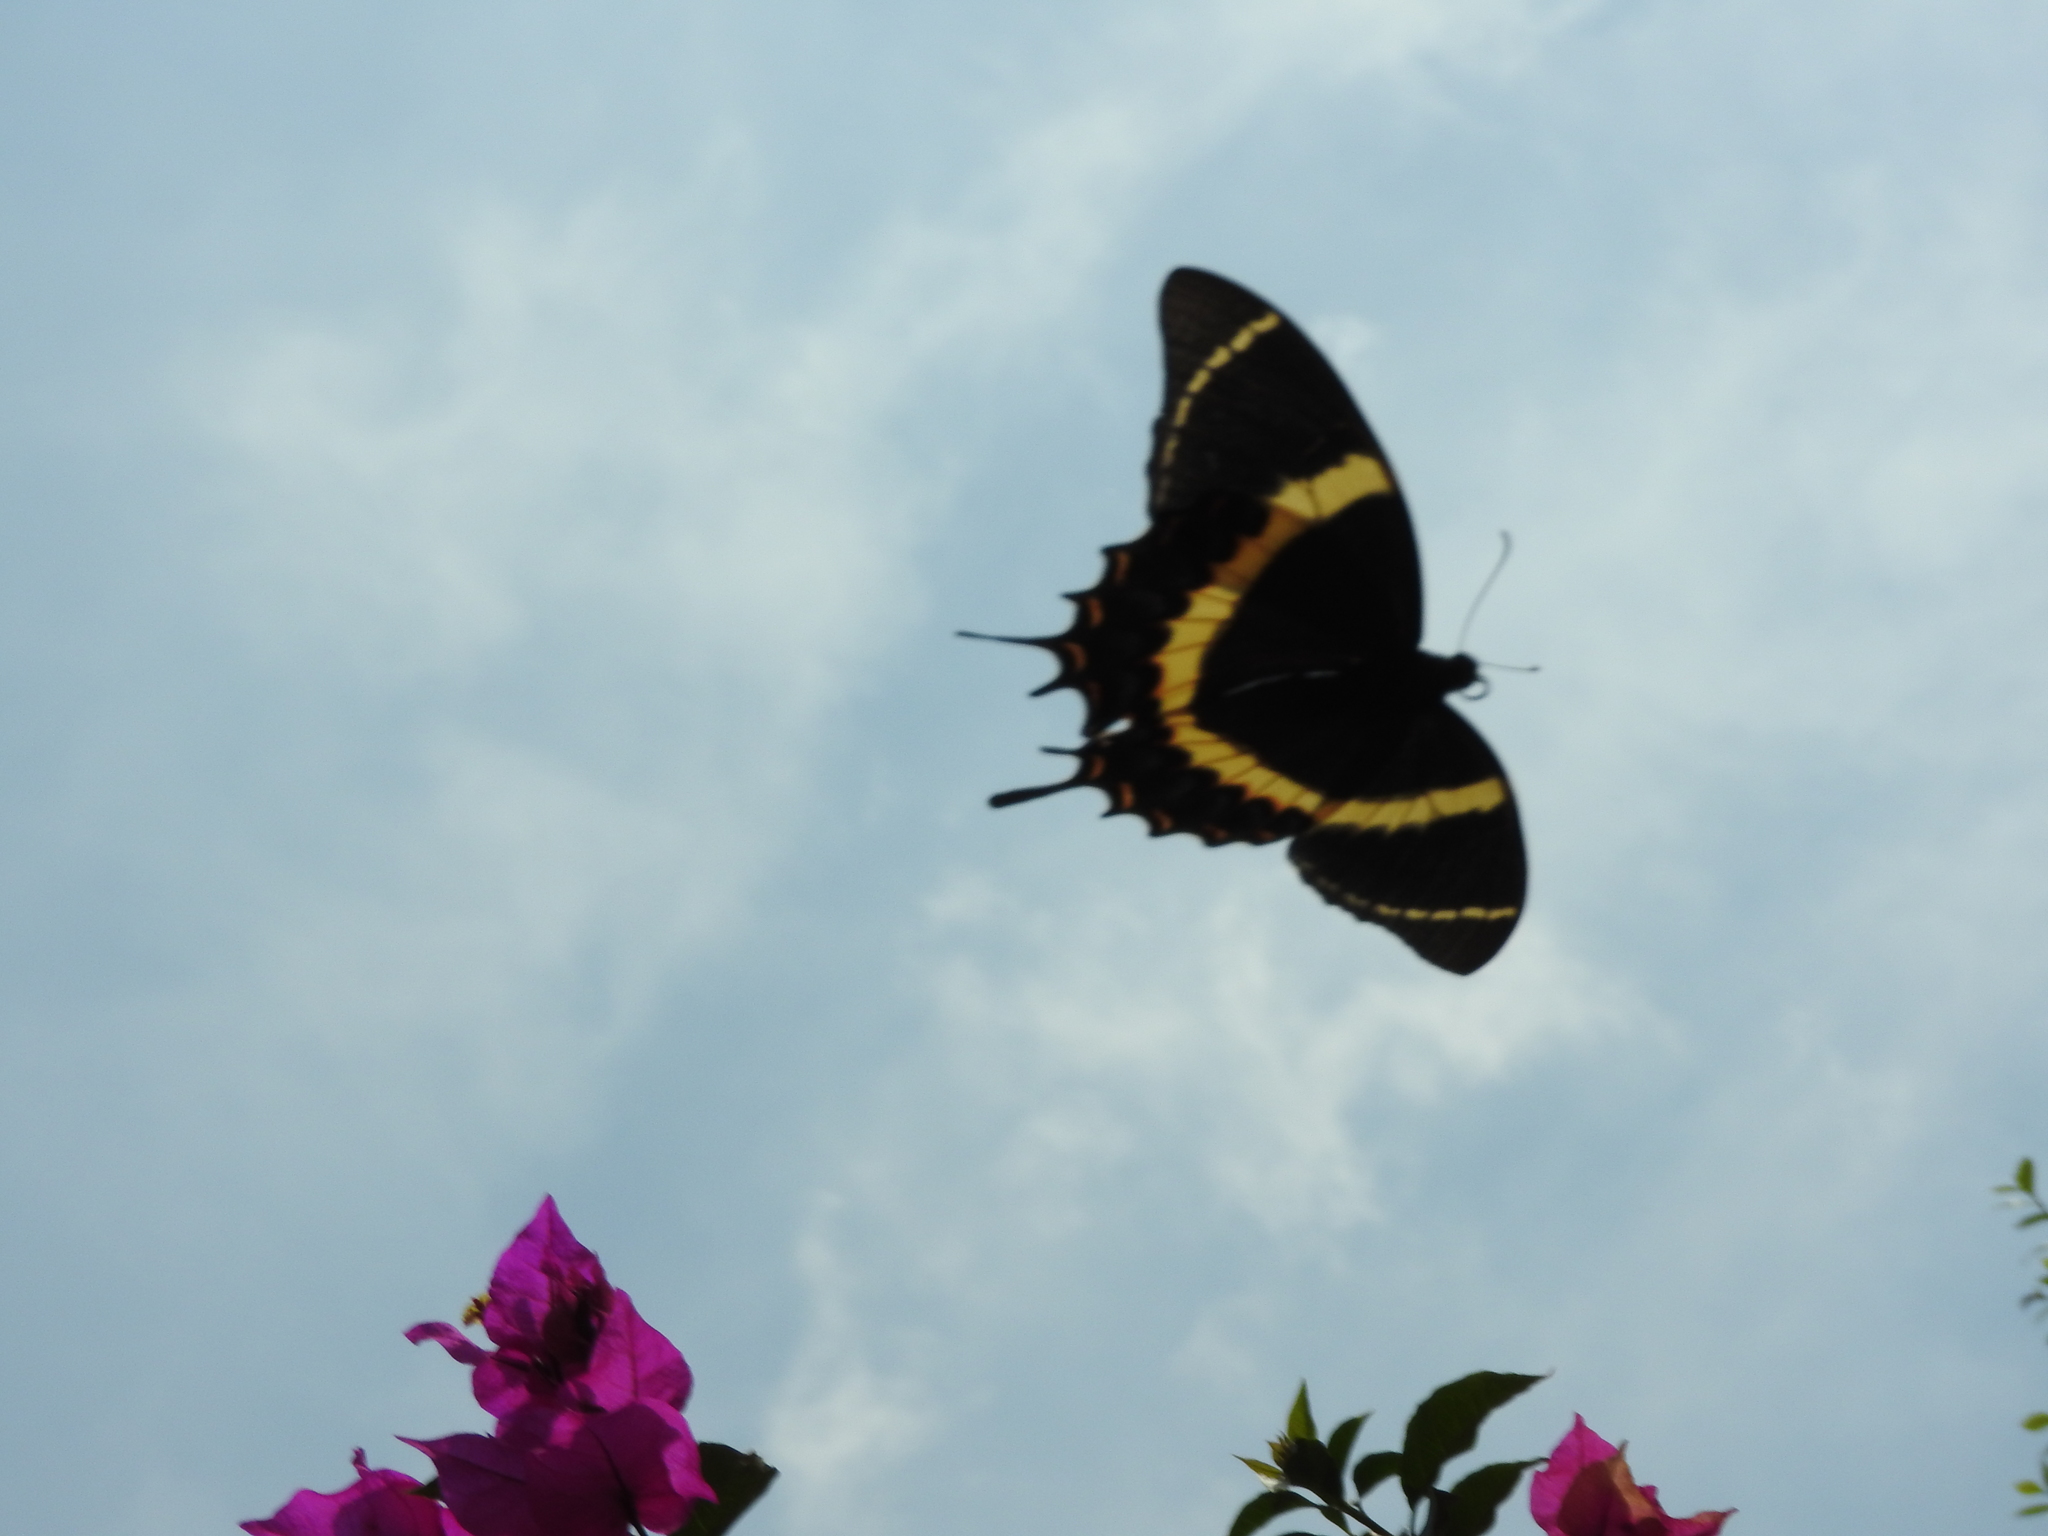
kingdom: Animalia
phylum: Arthropoda
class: Insecta
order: Lepidoptera
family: Papilionidae
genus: Papilio
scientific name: Papilio garamas
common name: Magnificent swallowtail
